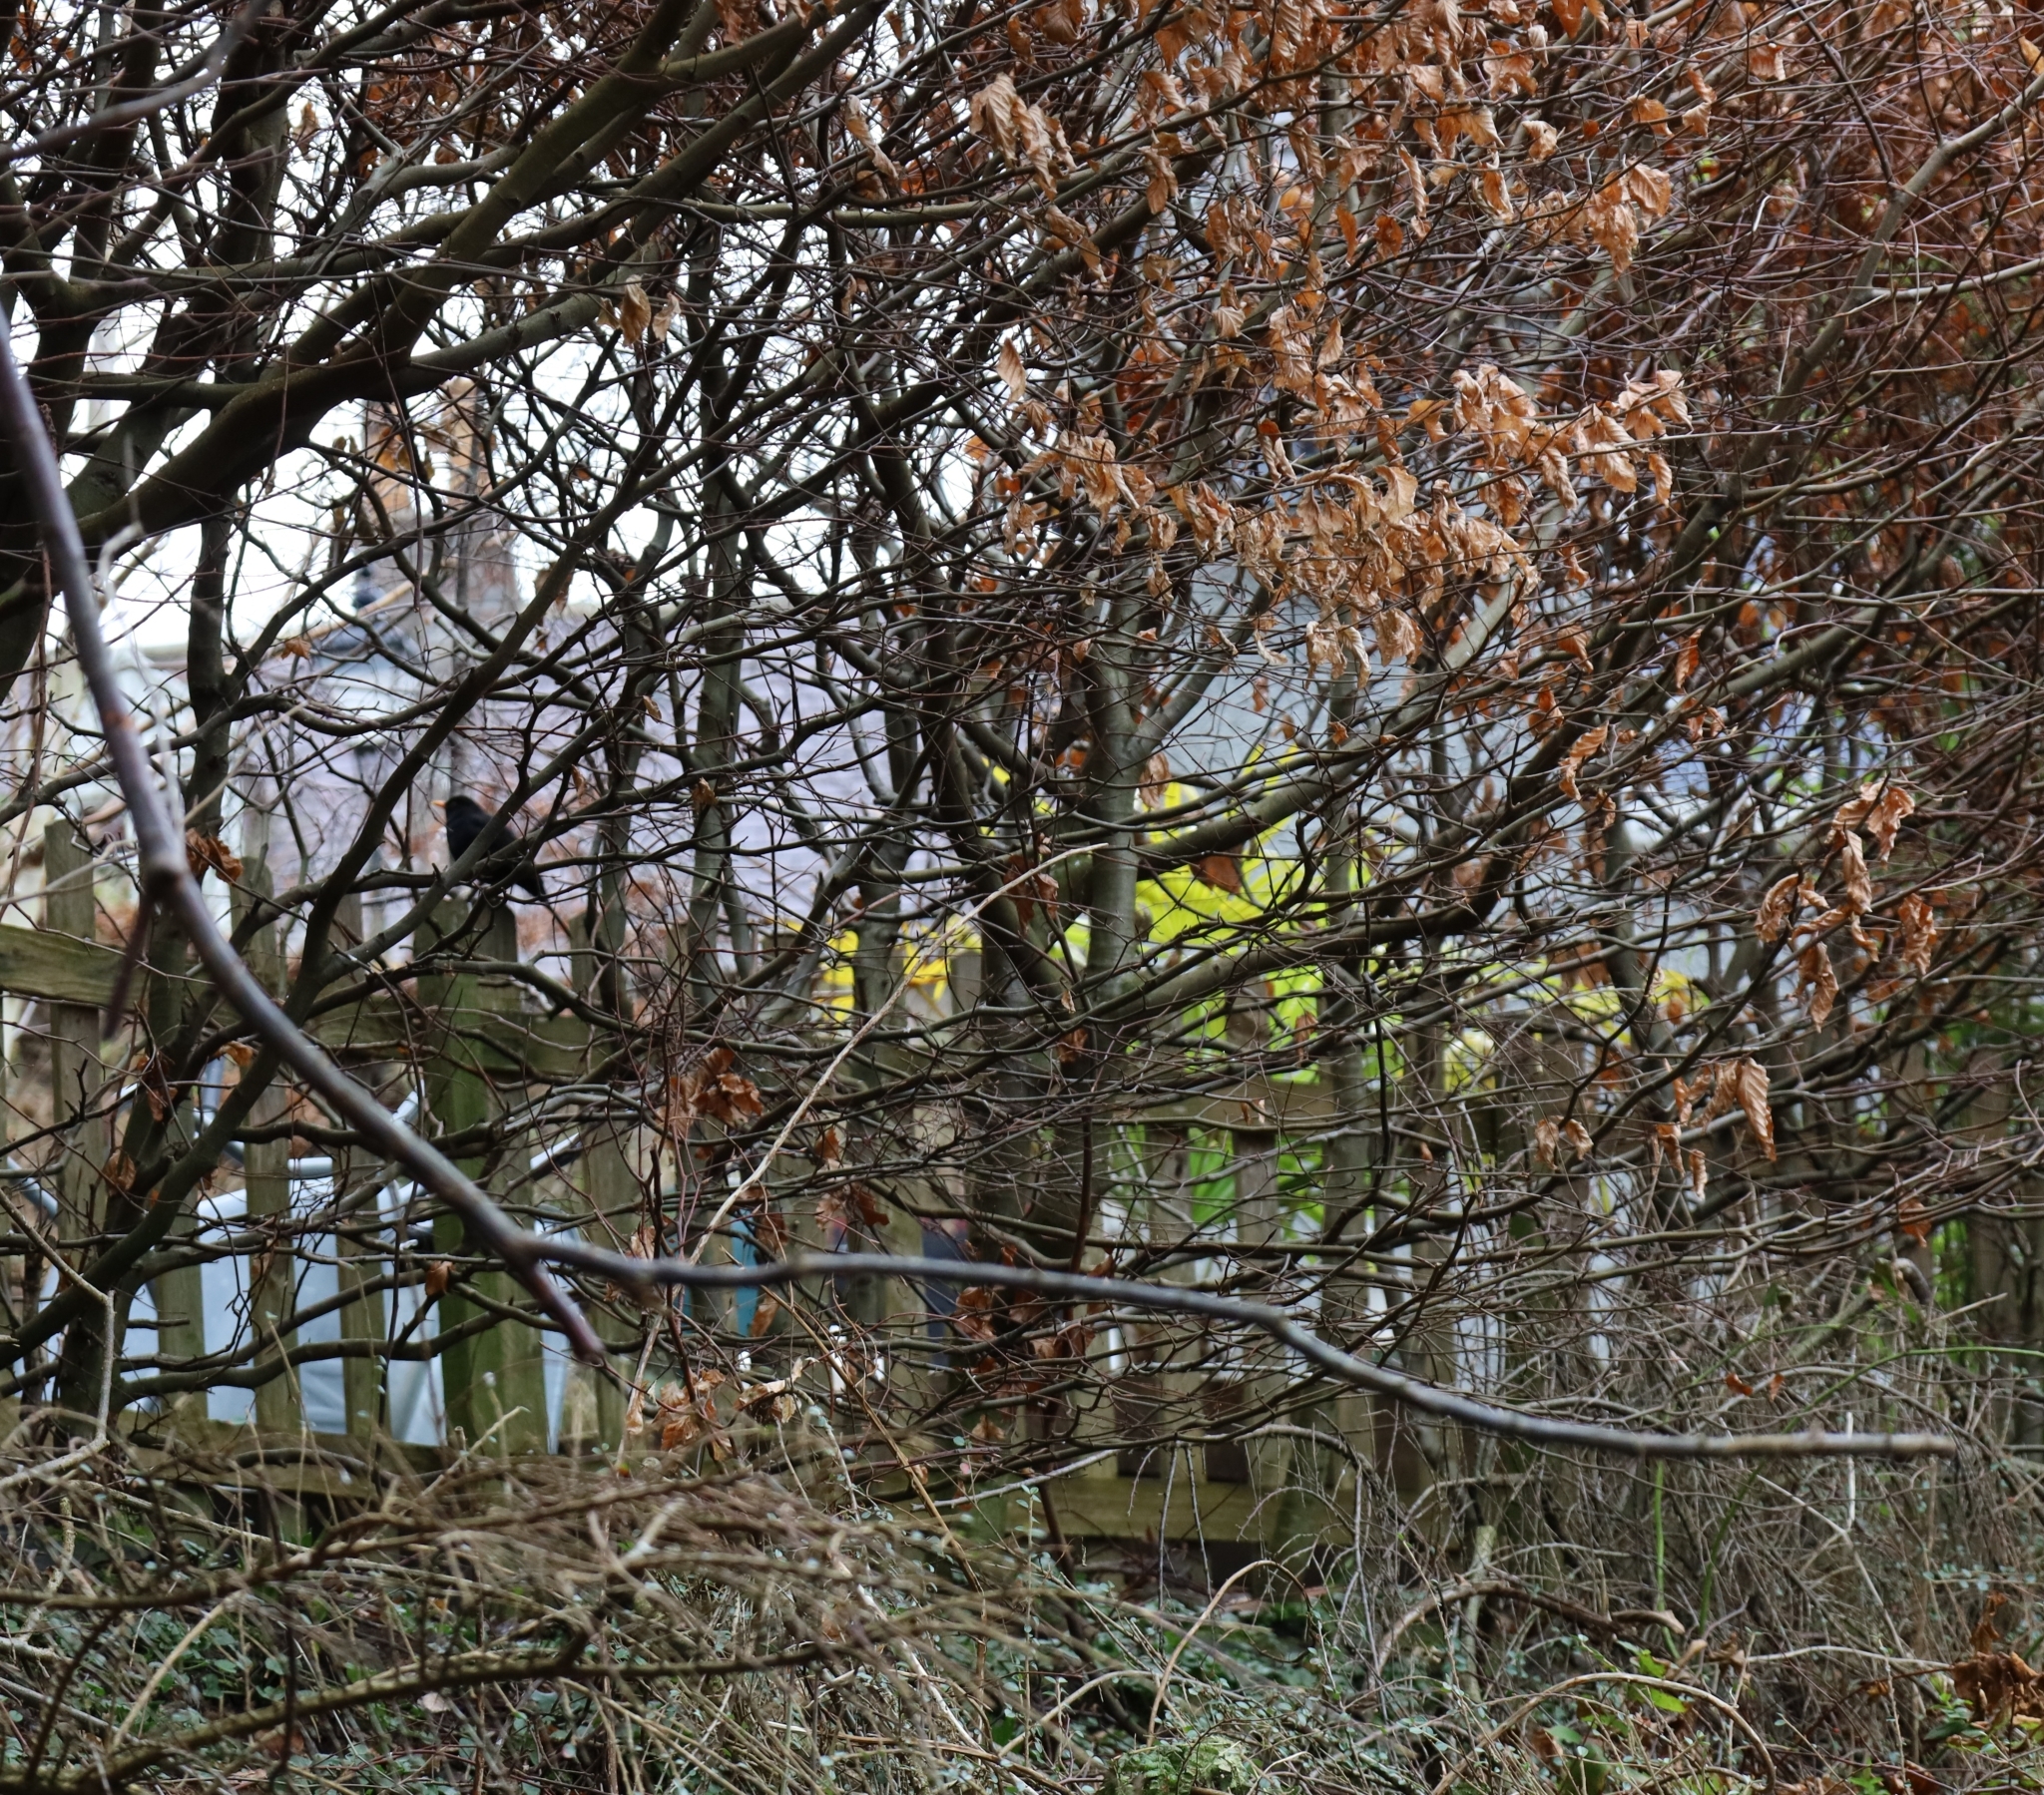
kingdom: Animalia
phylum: Chordata
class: Aves
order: Passeriformes
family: Turdidae
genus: Turdus
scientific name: Turdus merula
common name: Common blackbird
